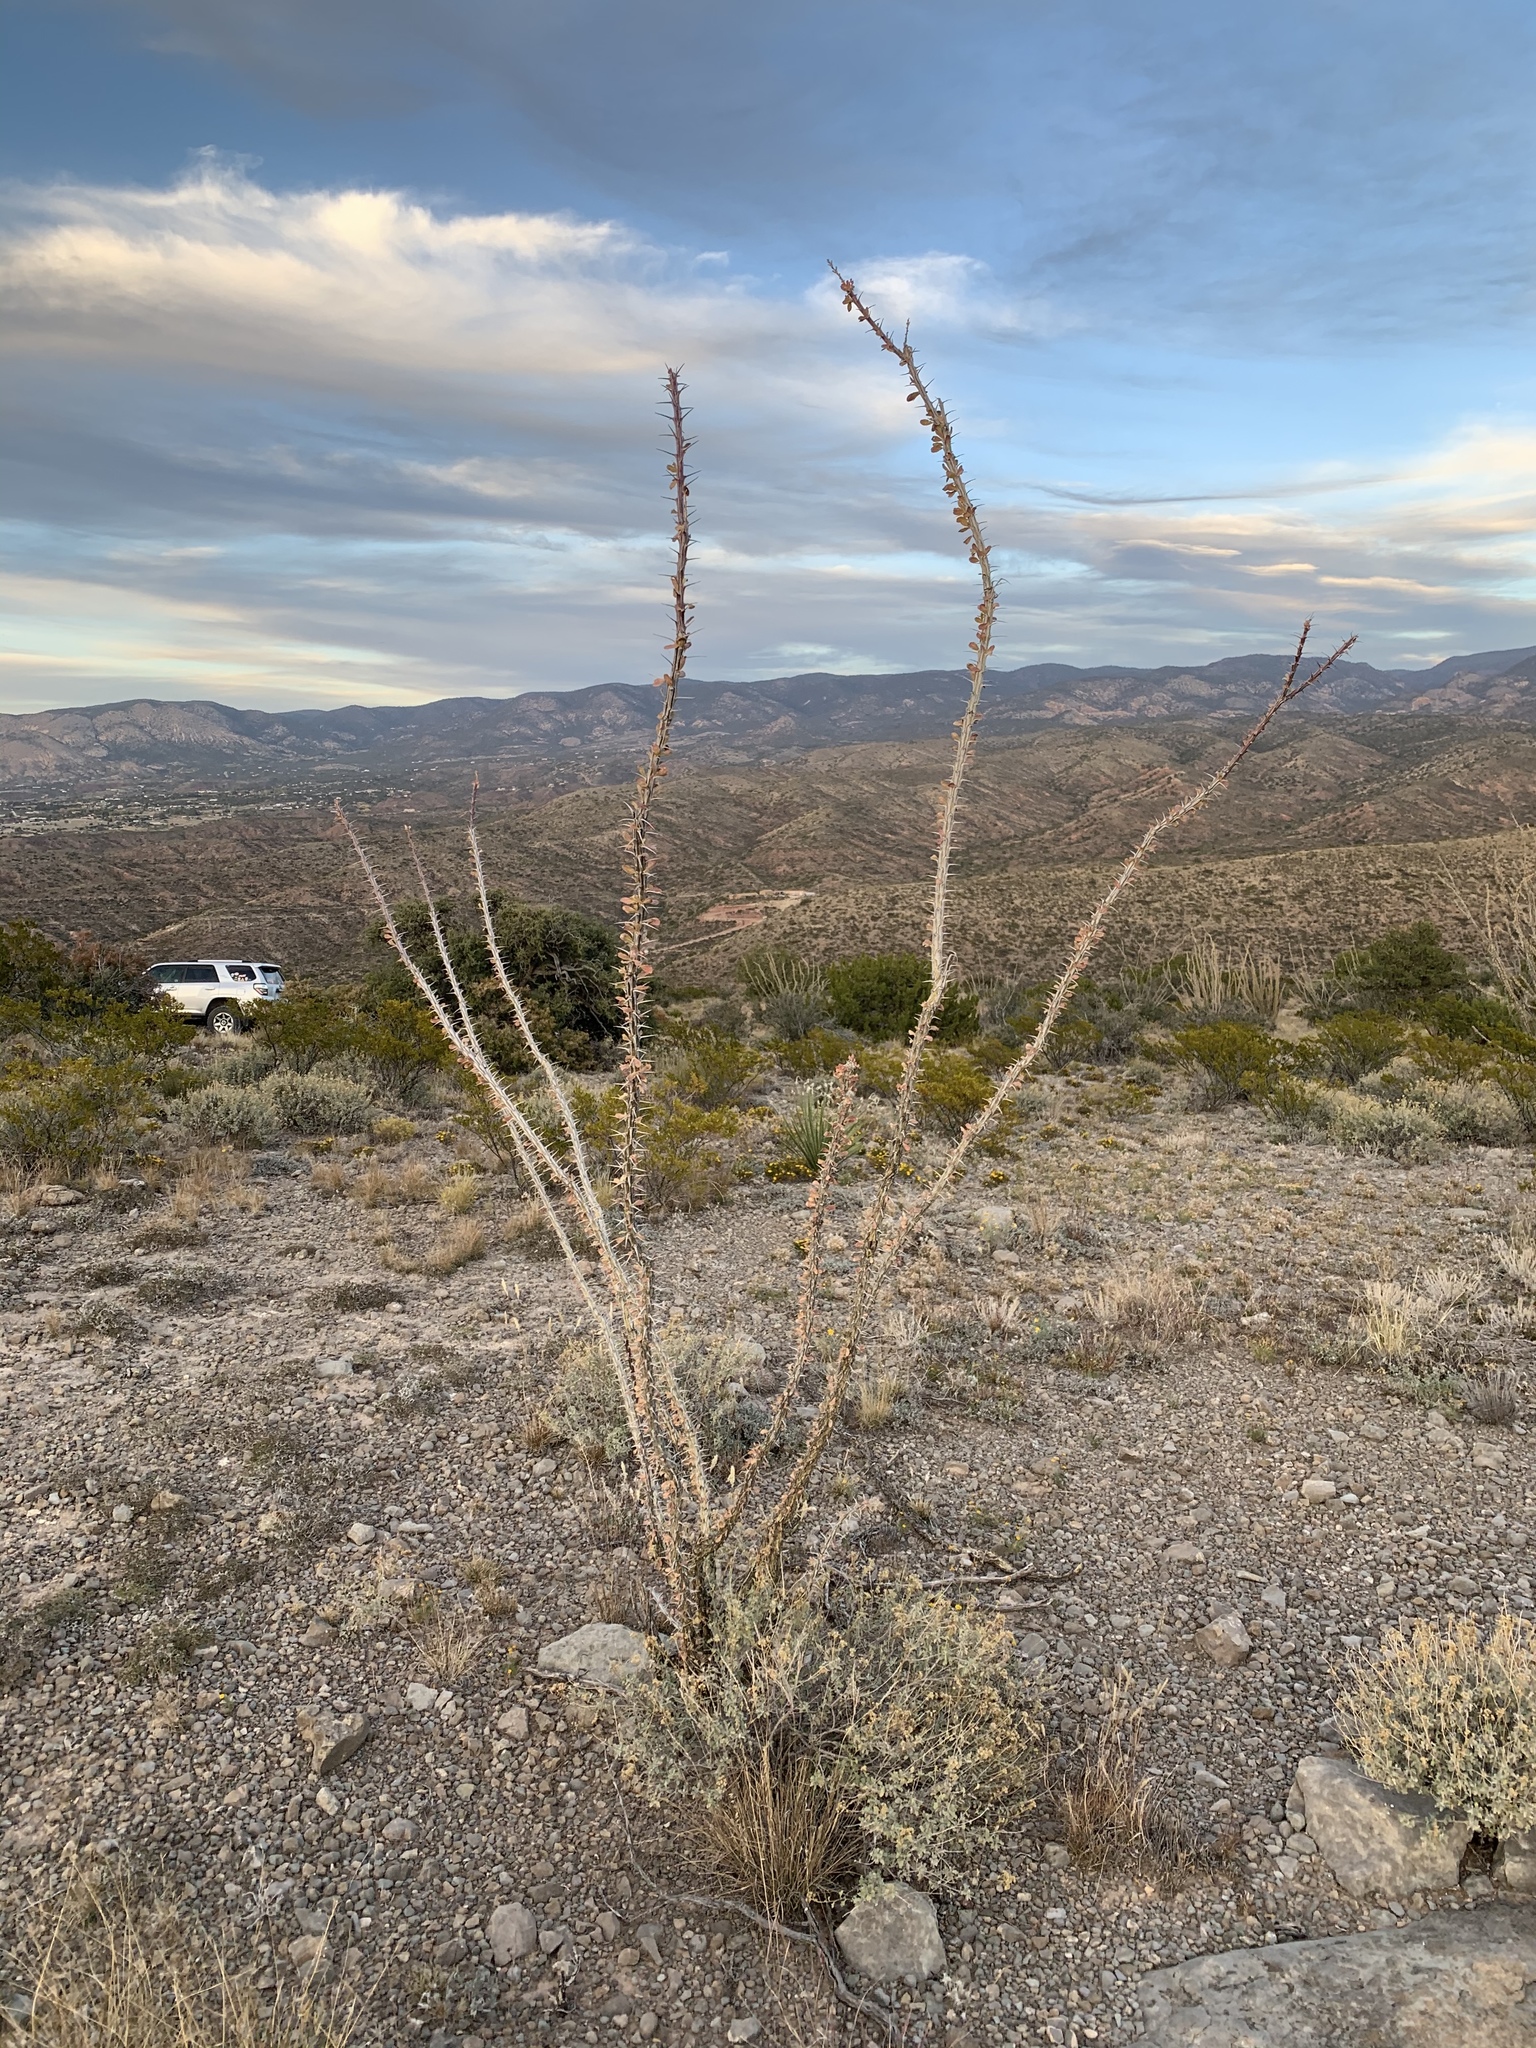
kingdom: Plantae
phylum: Tracheophyta
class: Magnoliopsida
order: Ericales
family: Fouquieriaceae
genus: Fouquieria
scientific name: Fouquieria splendens
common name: Vine-cactus
